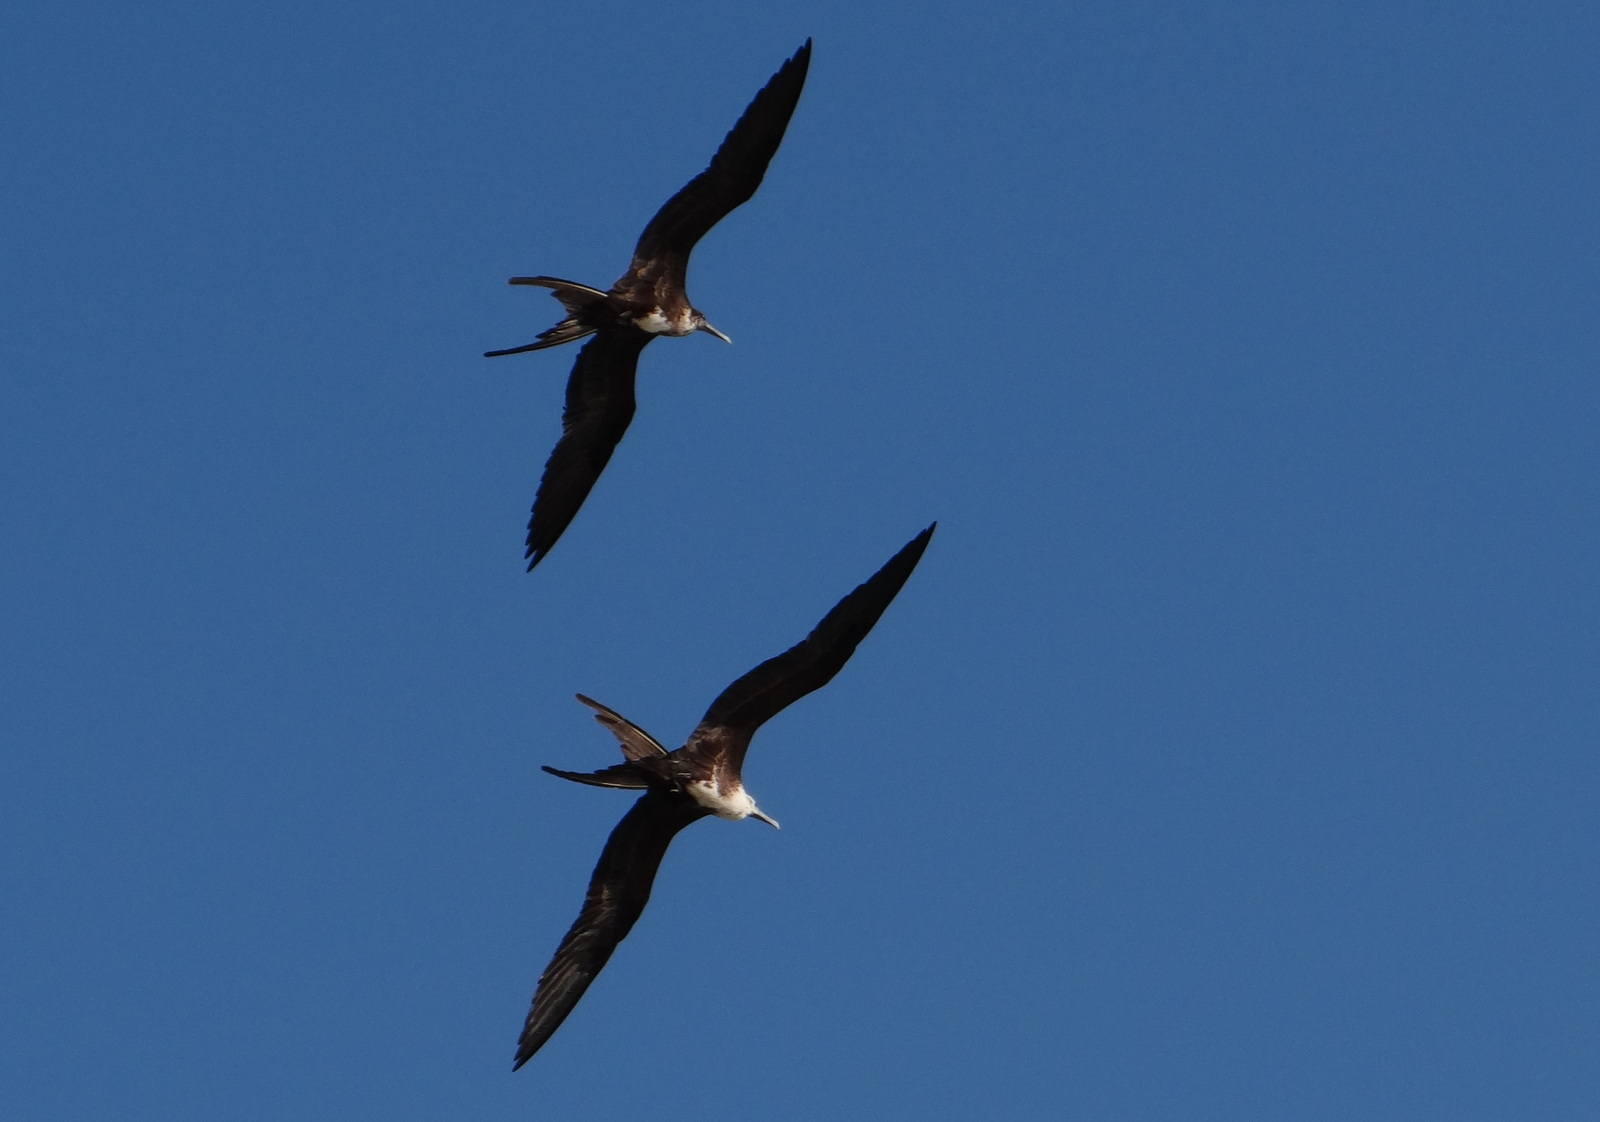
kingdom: Animalia
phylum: Chordata
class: Aves
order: Suliformes
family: Fregatidae
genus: Fregata
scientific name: Fregata magnificens
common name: Magnificent frigatebird
